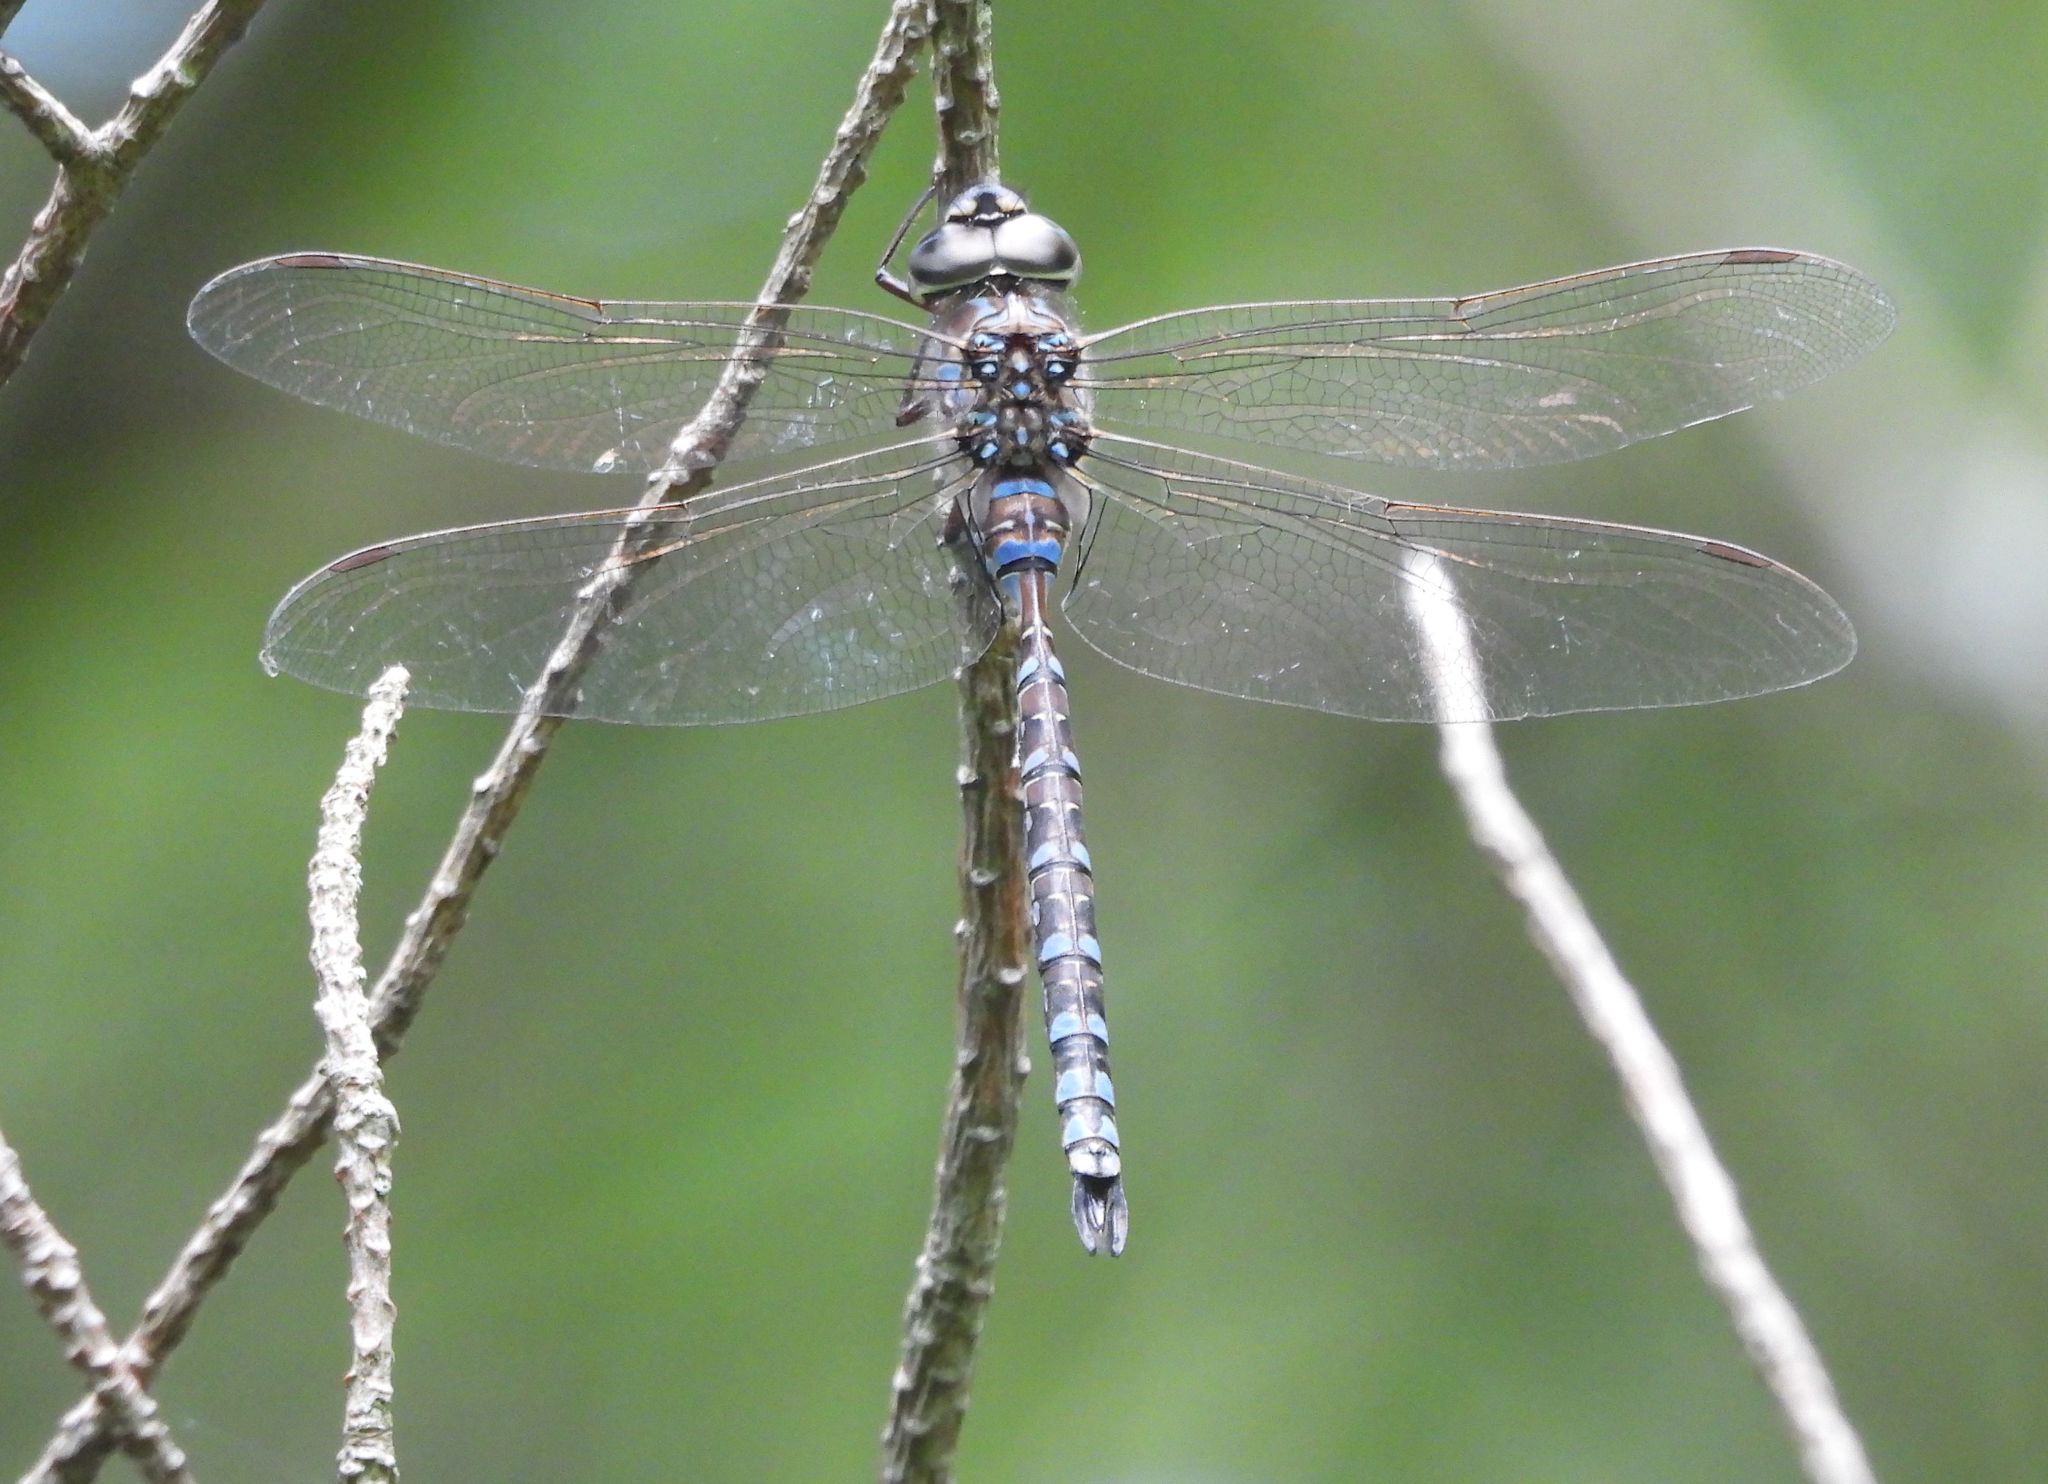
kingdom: Animalia
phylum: Arthropoda
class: Insecta
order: Odonata
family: Aeshnidae
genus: Aeshna
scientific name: Aeshna canadensis
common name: Canada darner
